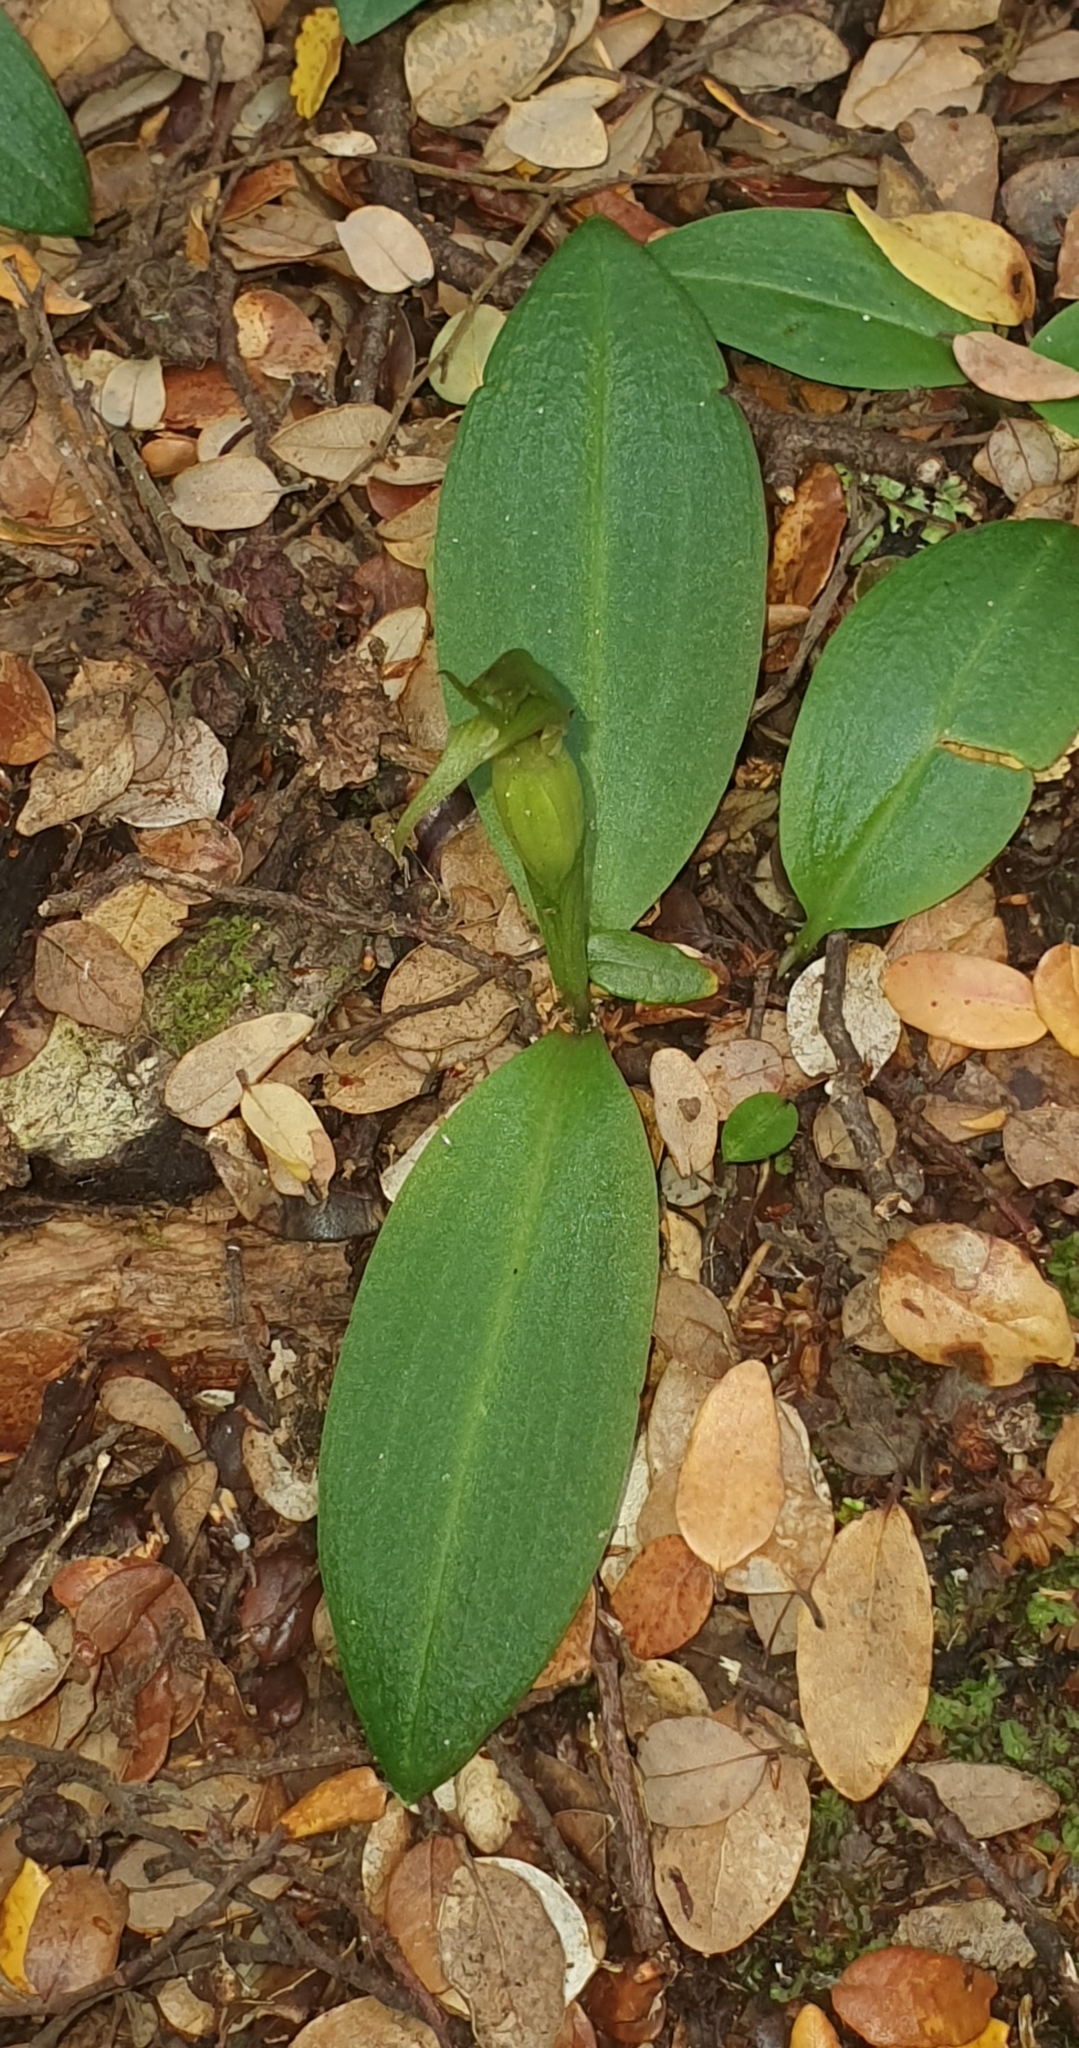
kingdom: Plantae
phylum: Tracheophyta
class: Liliopsida
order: Asparagales
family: Orchidaceae
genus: Chiloglottis
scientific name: Chiloglottis cornuta
